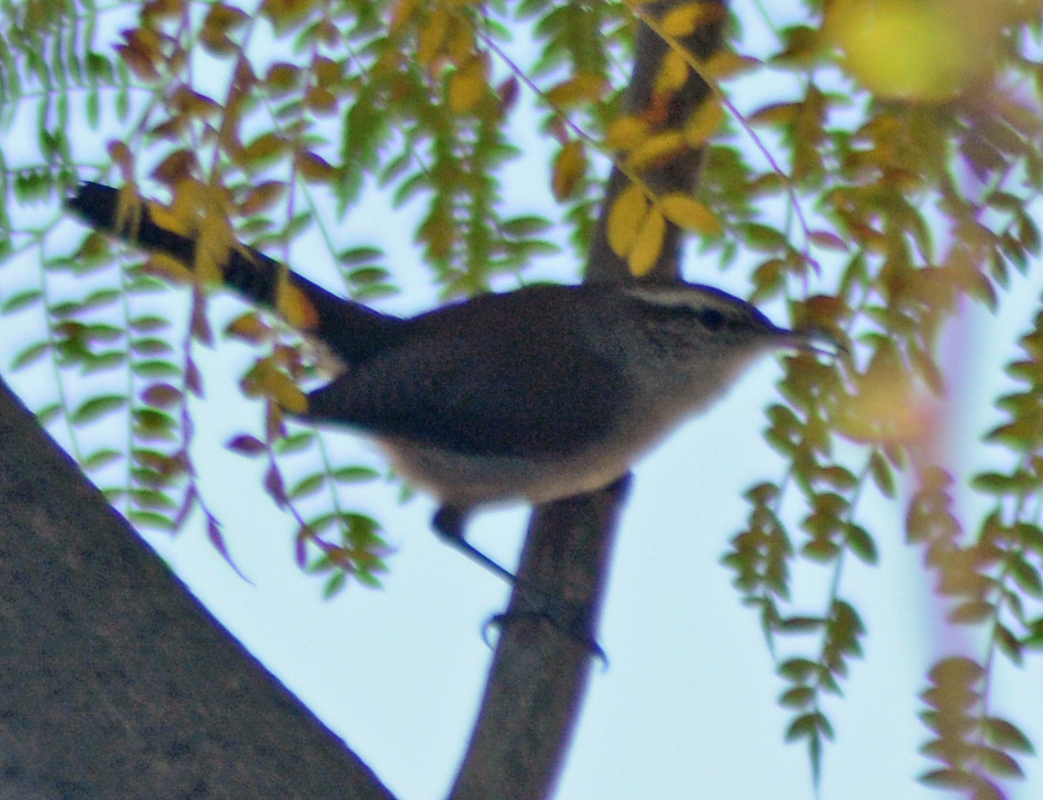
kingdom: Animalia
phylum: Chordata
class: Aves
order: Passeriformes
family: Troglodytidae
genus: Thryomanes
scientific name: Thryomanes bewickii
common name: Bewick's wren
